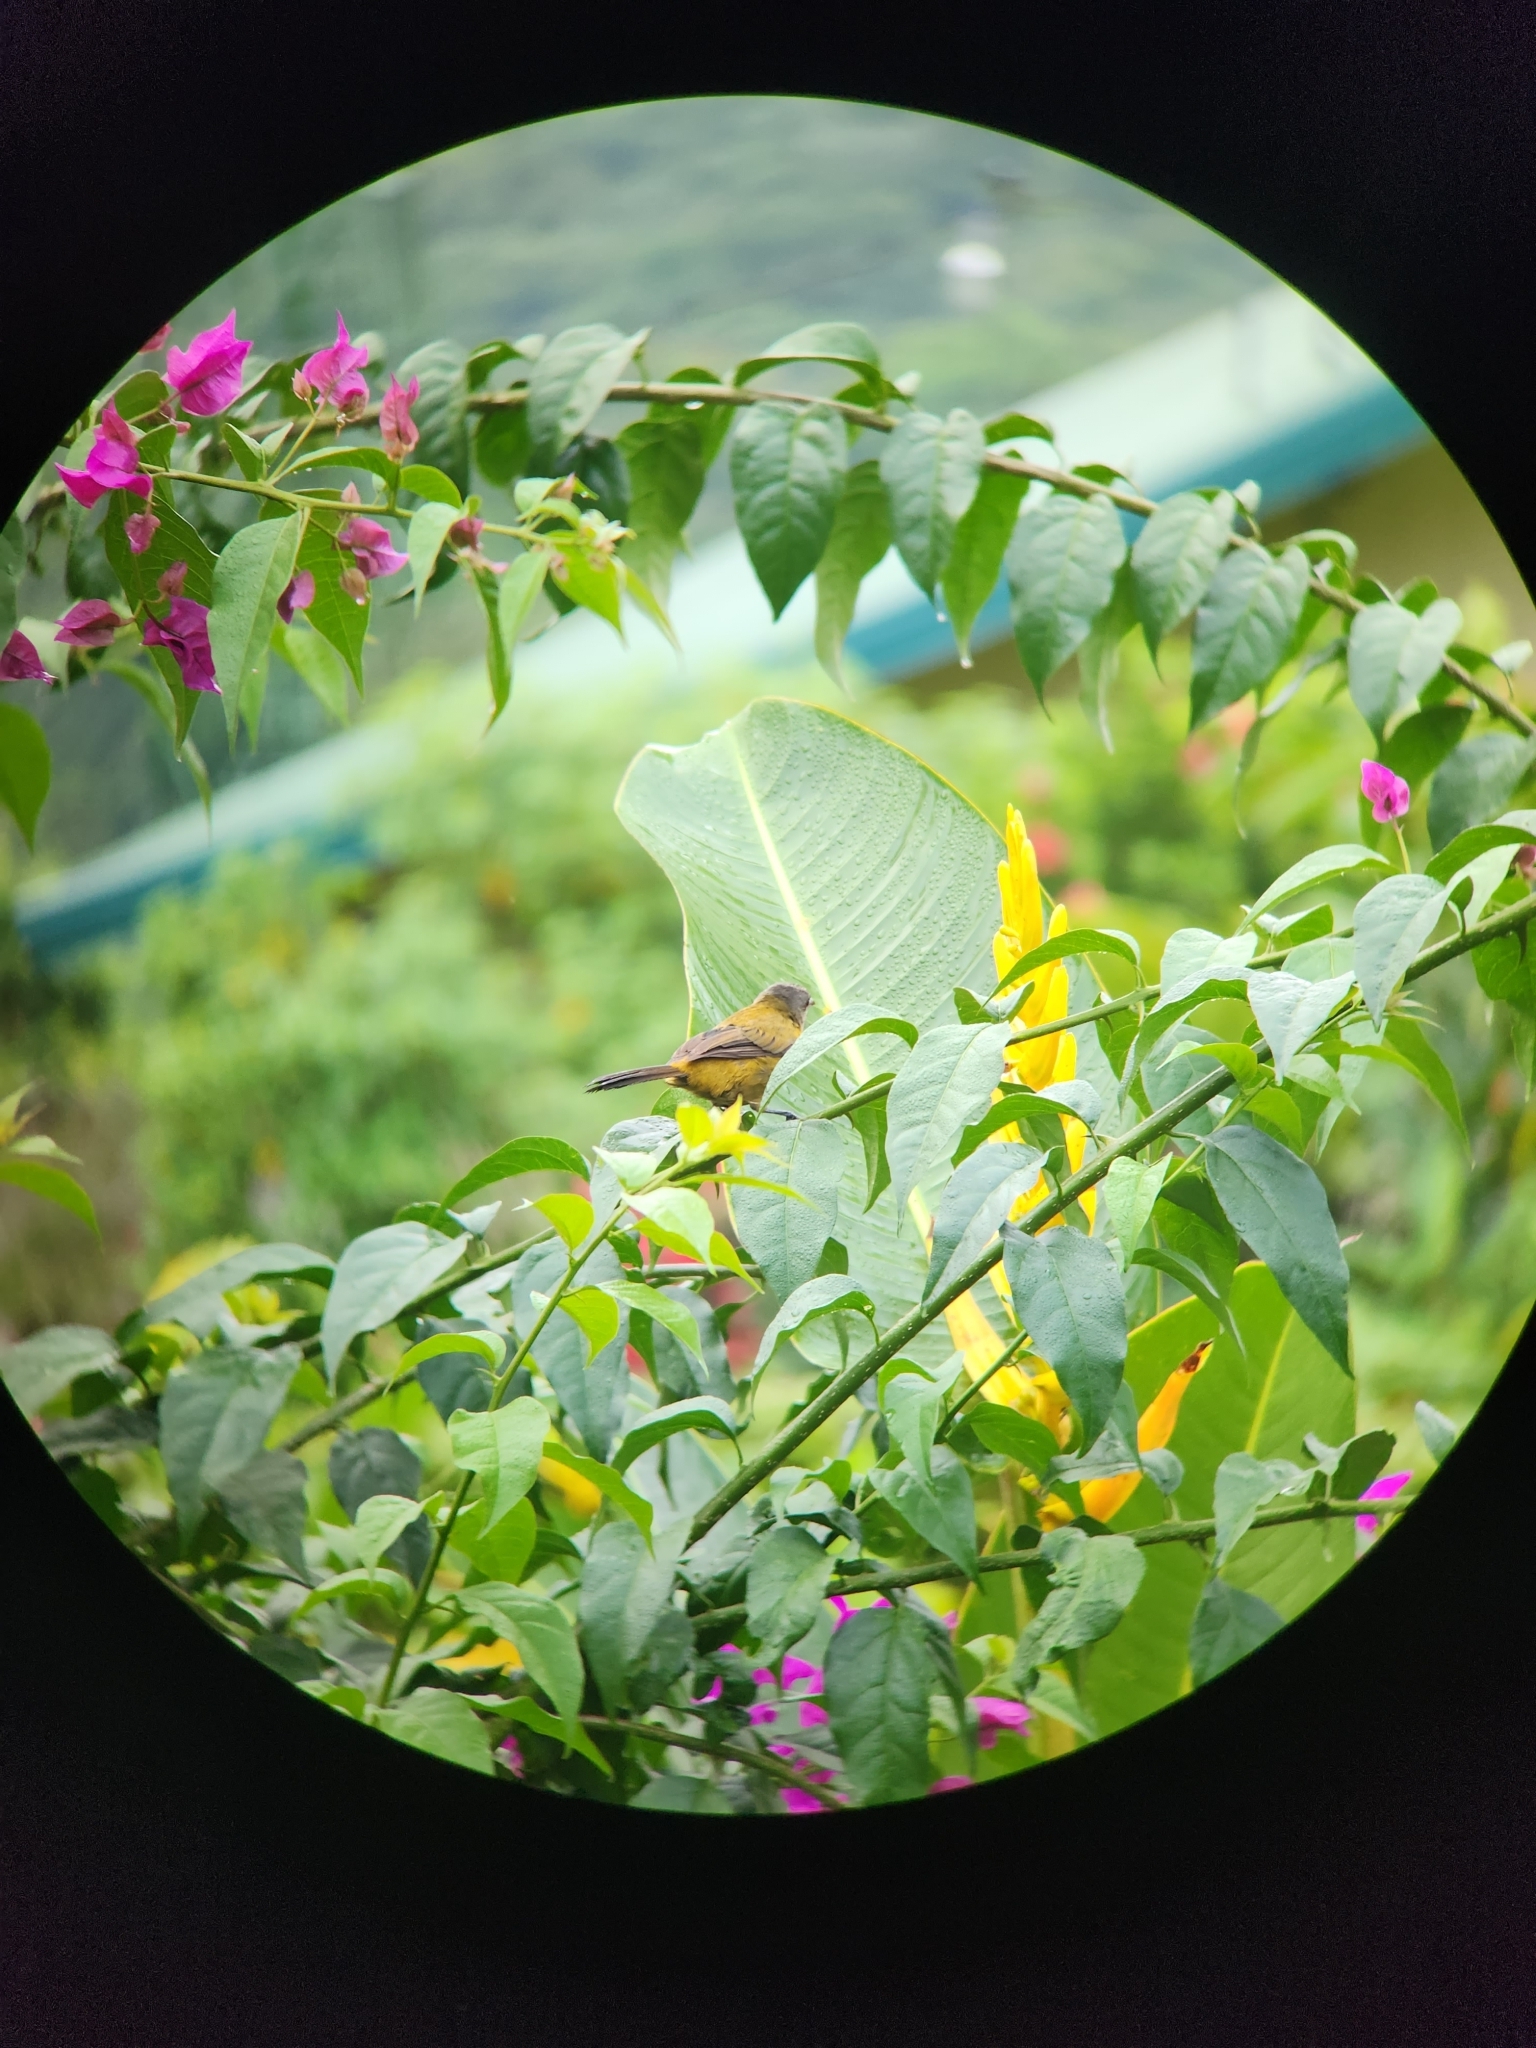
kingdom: Animalia
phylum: Chordata
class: Aves
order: Passeriformes
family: Thraupidae
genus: Ramphocelus
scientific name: Ramphocelus passerinii
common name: Passerini's tanager
